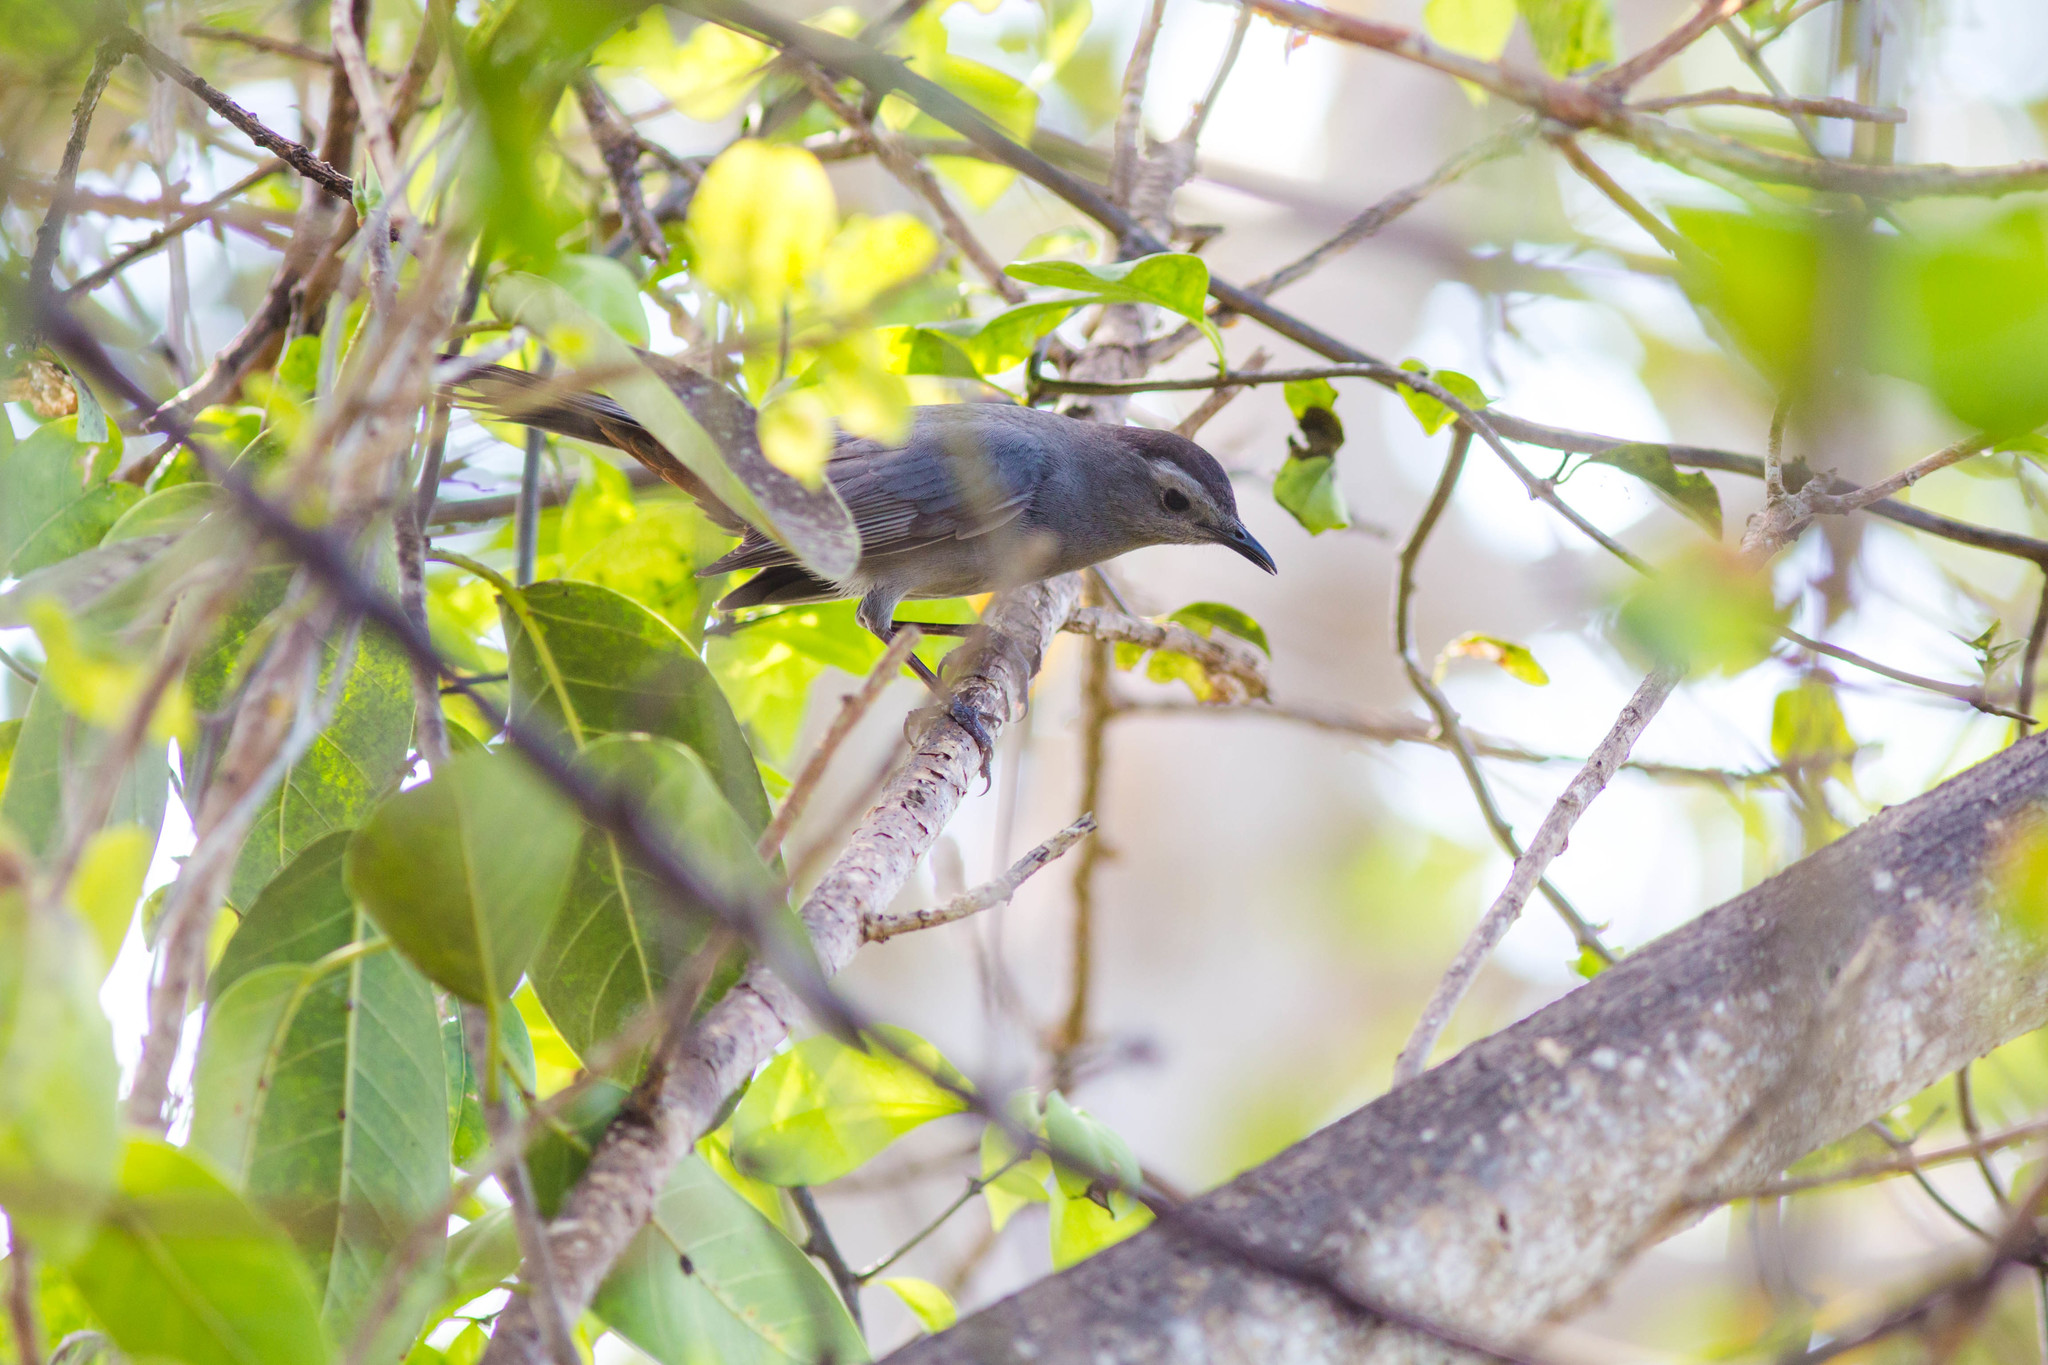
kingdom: Animalia
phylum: Chordata
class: Aves
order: Passeriformes
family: Mimidae
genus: Dumetella
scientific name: Dumetella carolinensis
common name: Gray catbird
